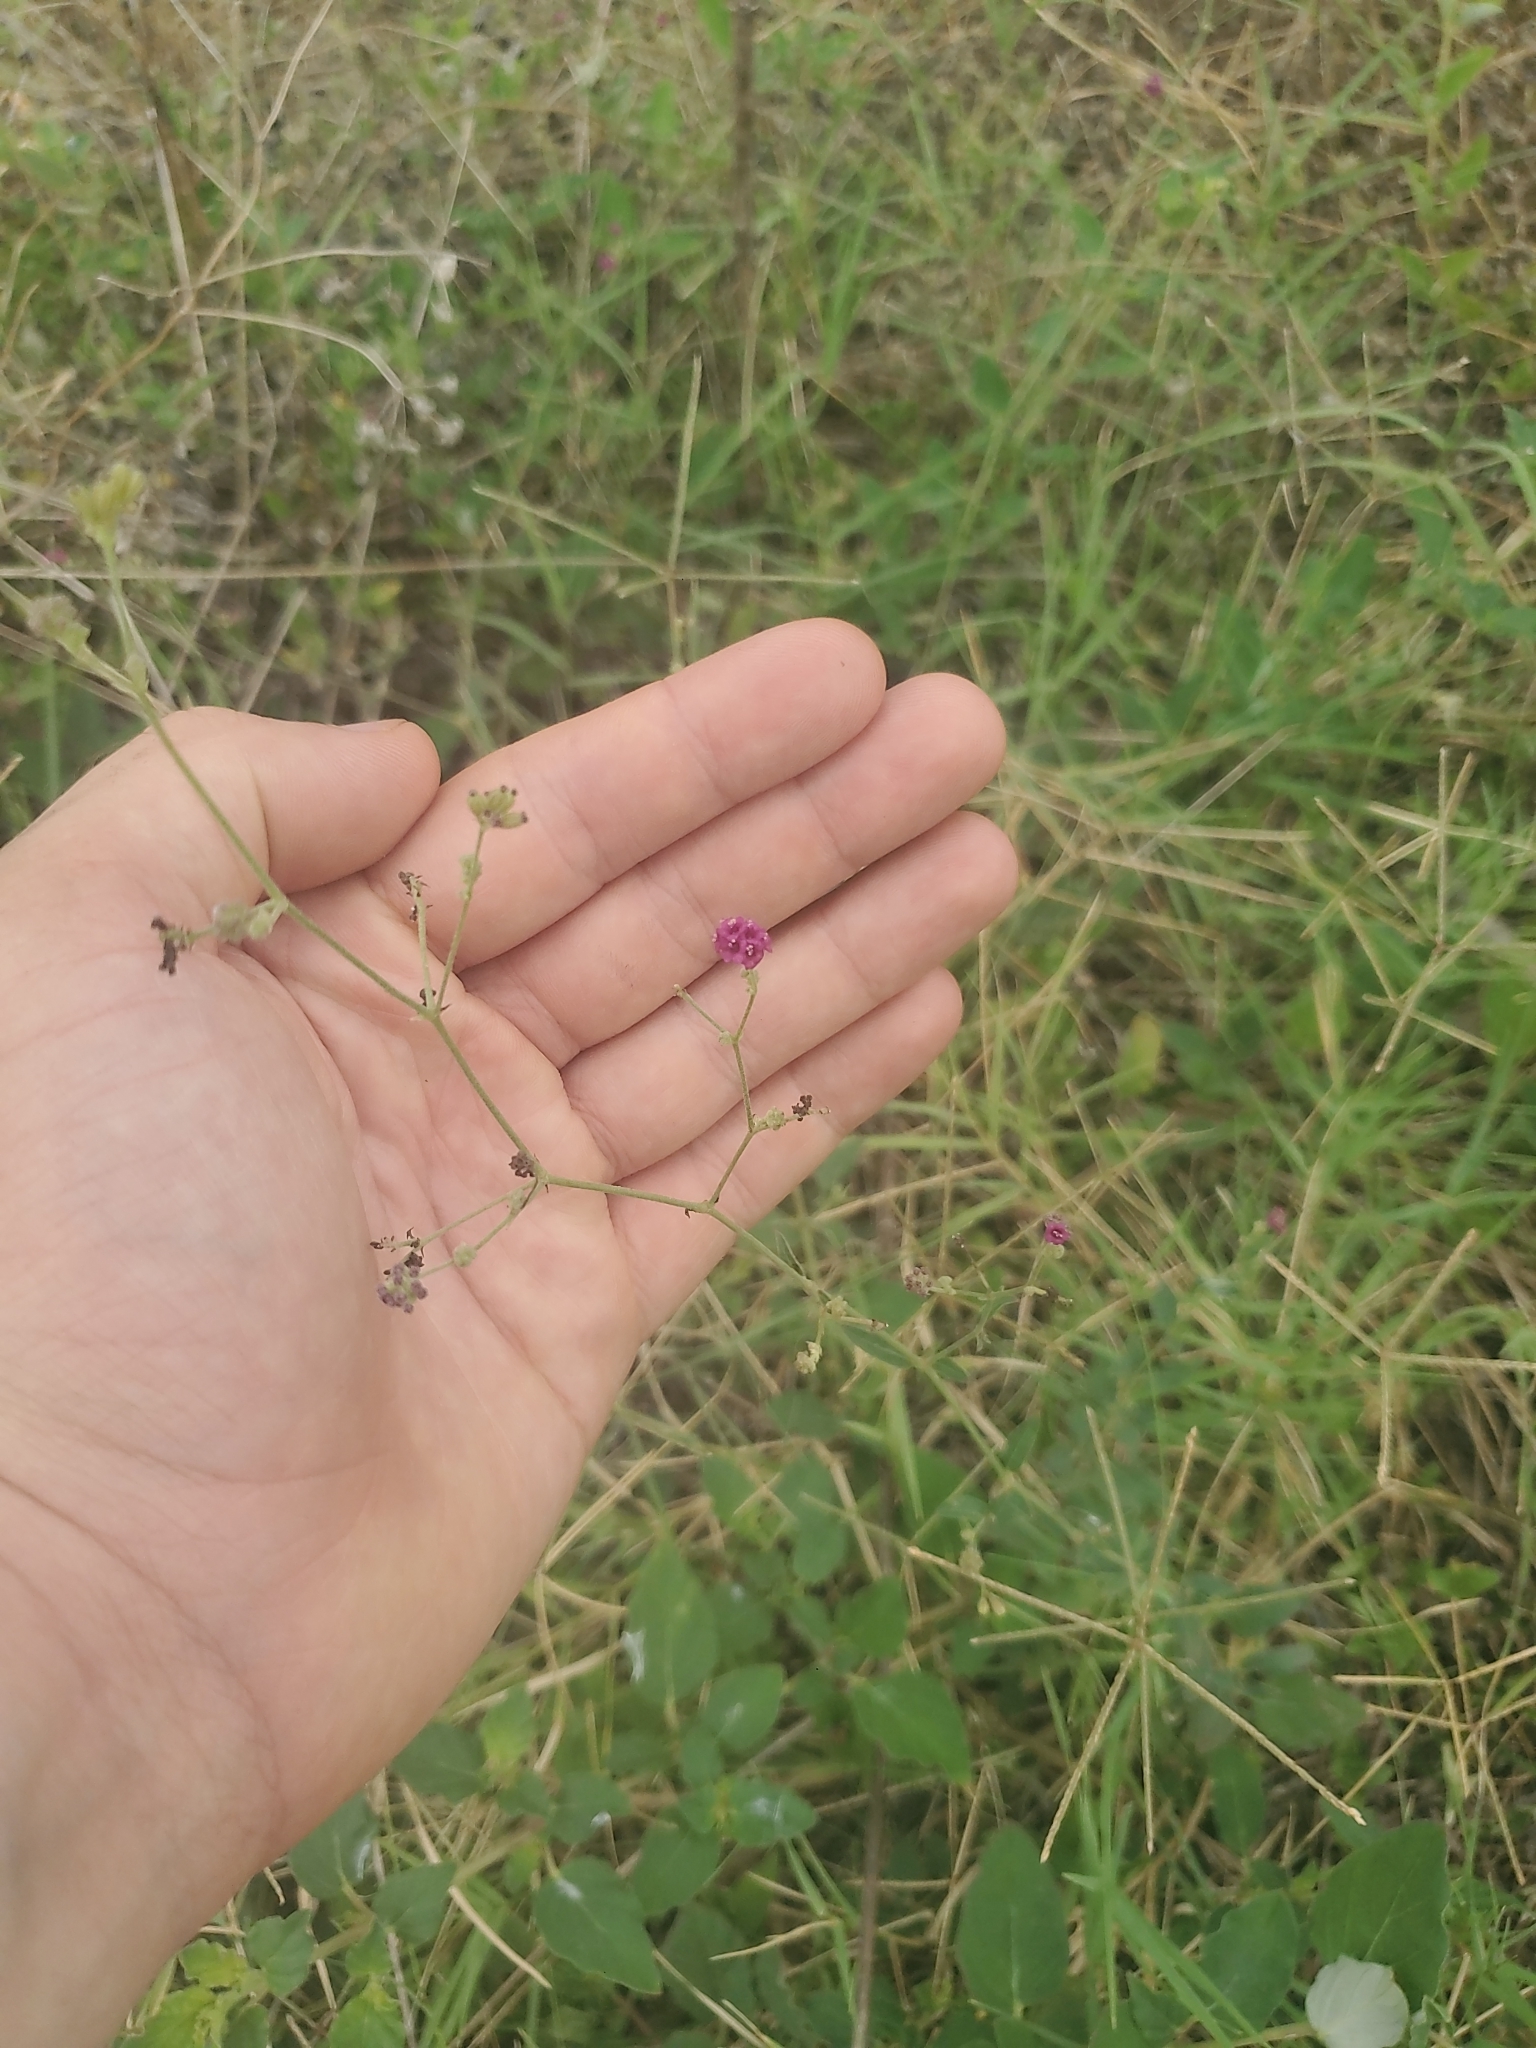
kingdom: Plantae
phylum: Tracheophyta
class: Magnoliopsida
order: Caryophyllales
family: Nyctaginaceae
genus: Boerhavia
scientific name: Boerhavia coccinea
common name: Scarlet spiderling
